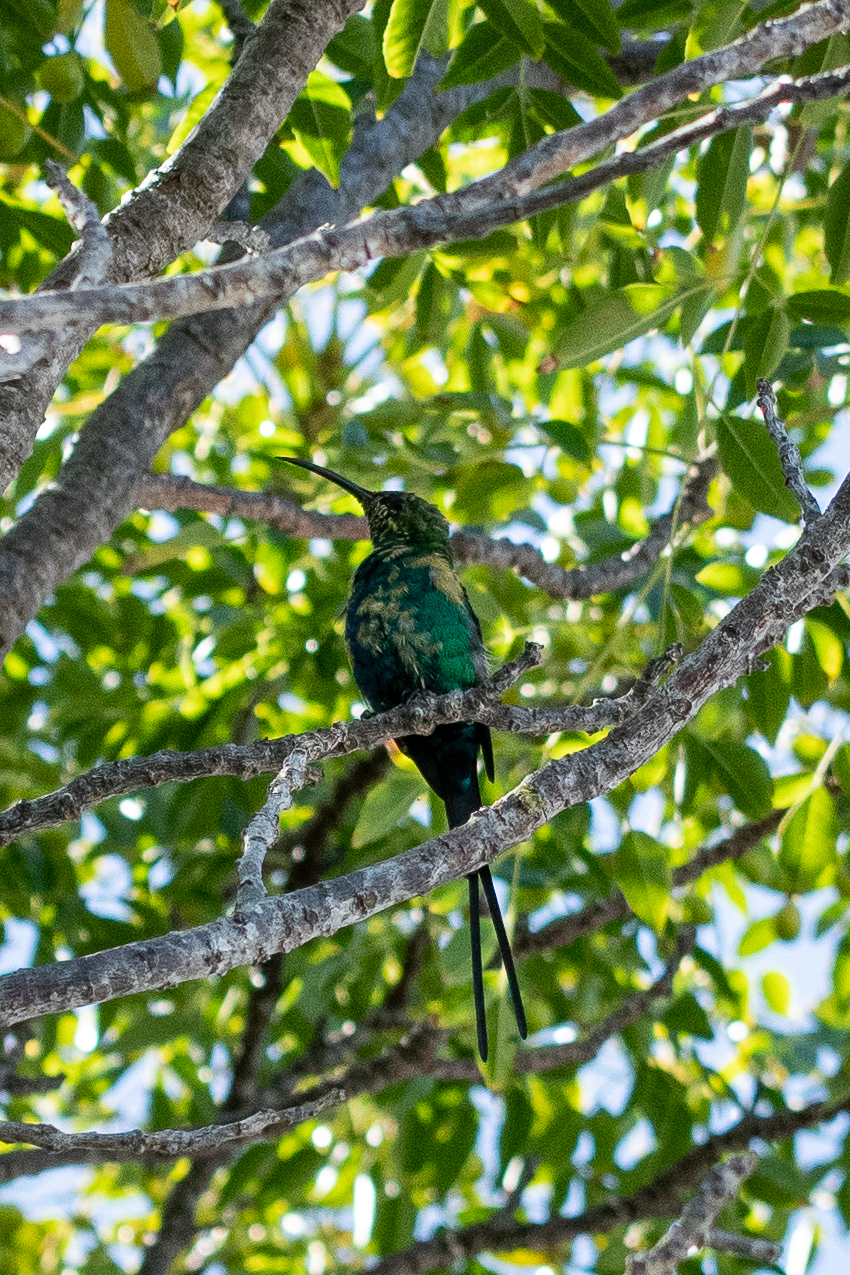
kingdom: Animalia
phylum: Chordata
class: Aves
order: Passeriformes
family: Nectariniidae
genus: Nectarinia
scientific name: Nectarinia famosa
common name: Malachite sunbird
